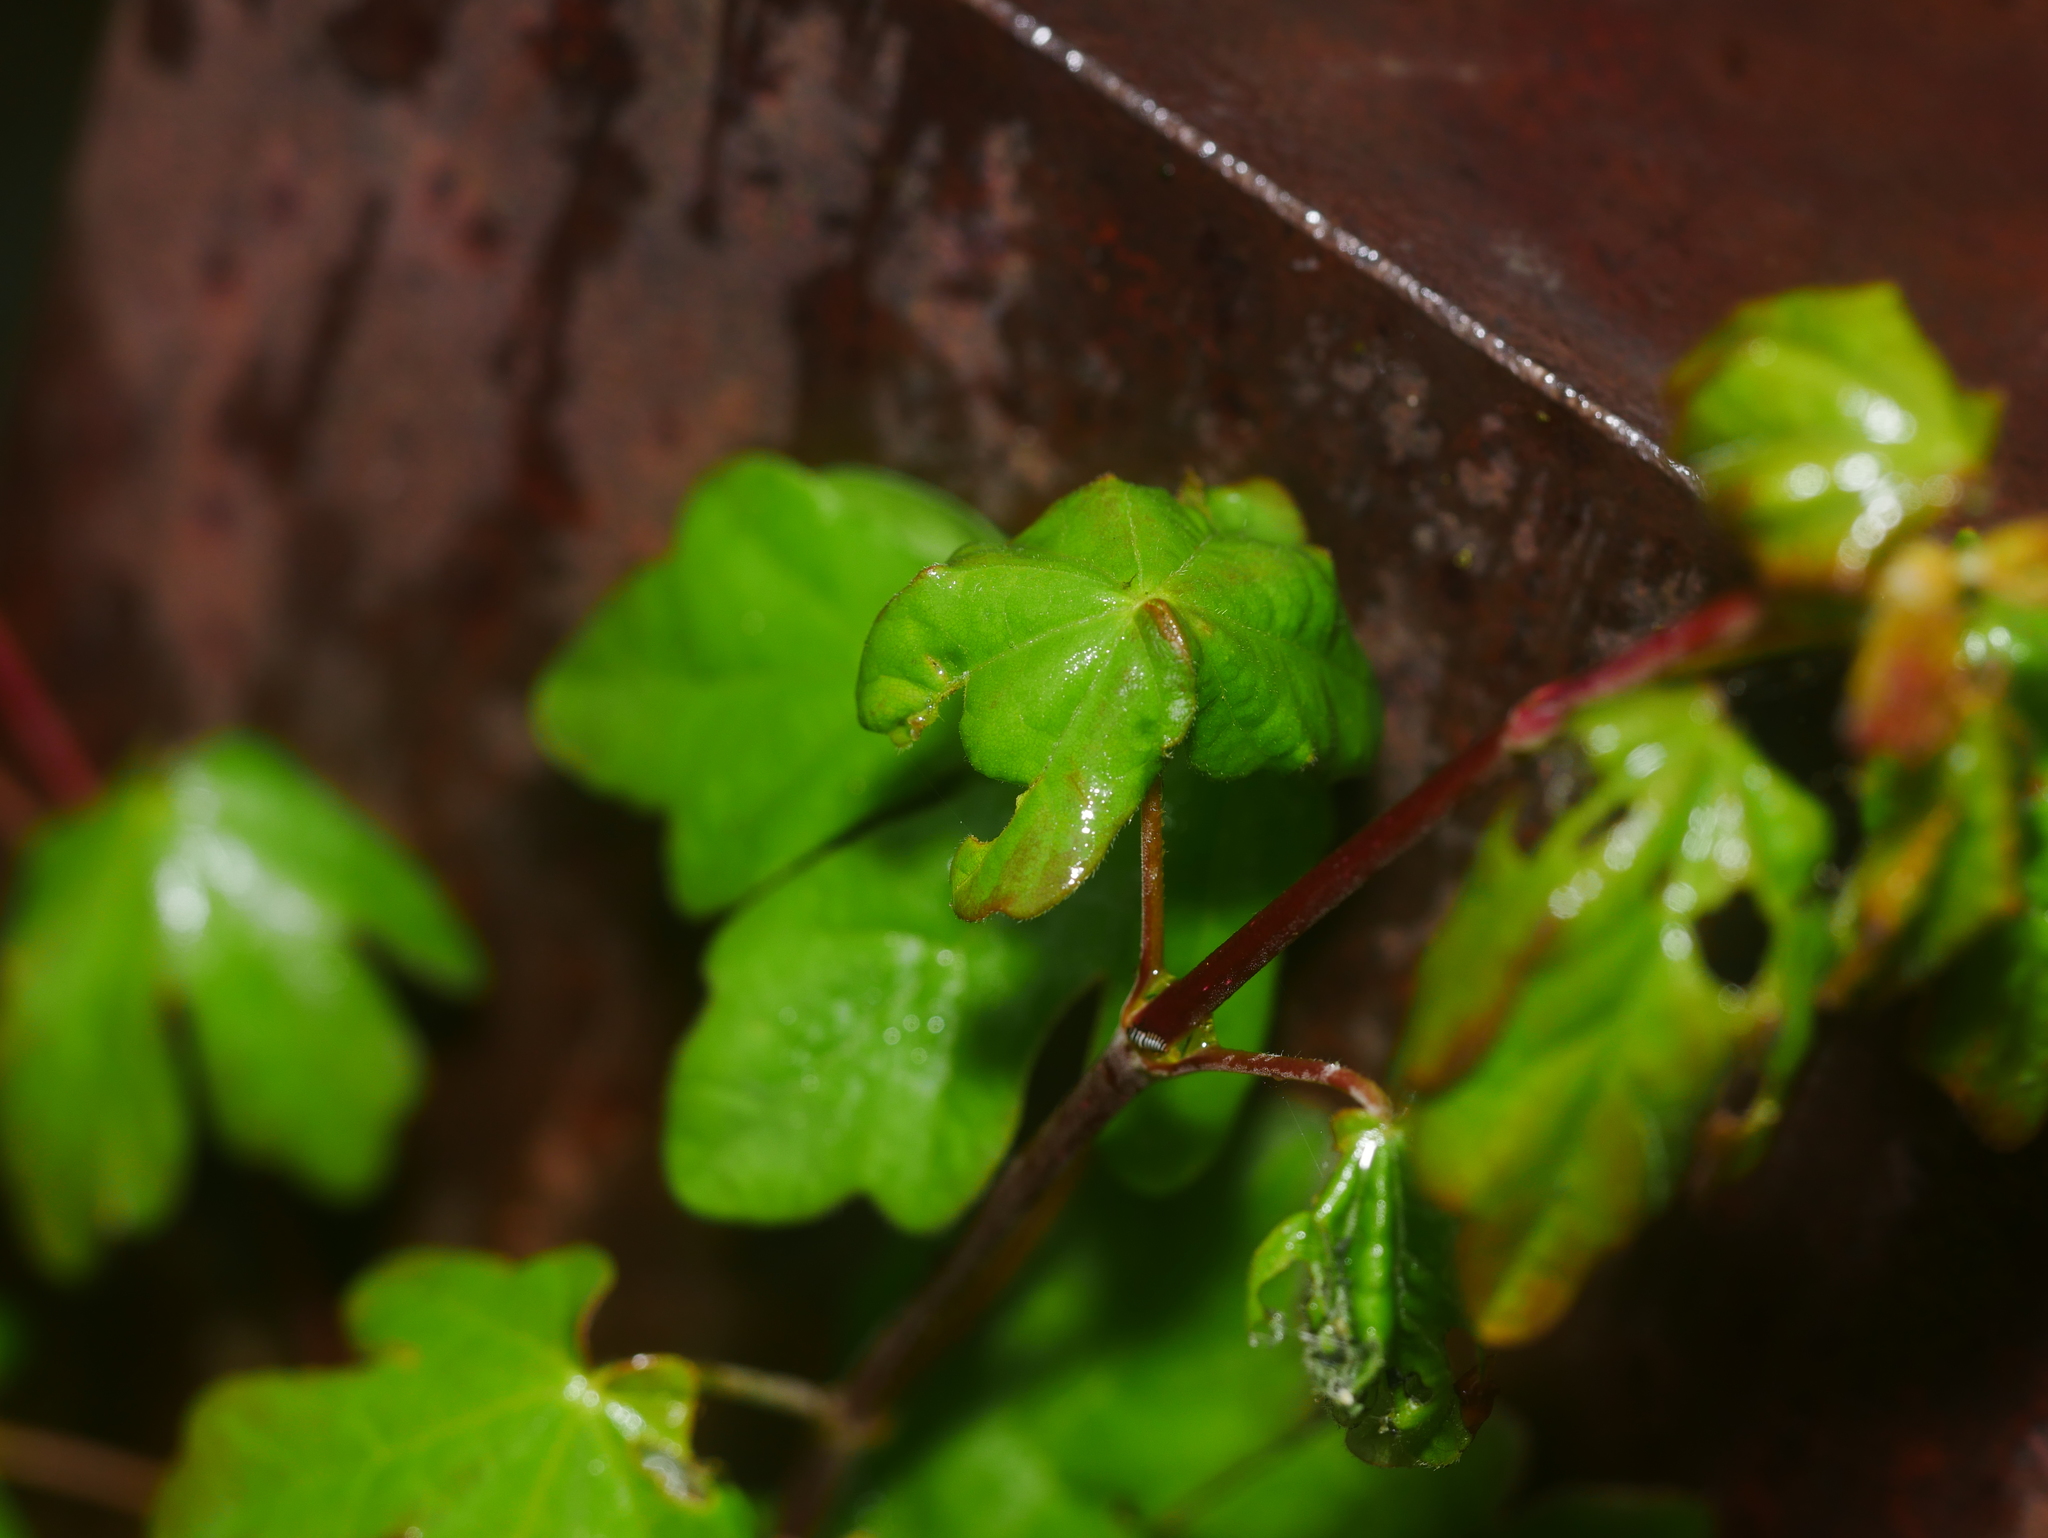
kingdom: Plantae
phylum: Tracheophyta
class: Magnoliopsida
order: Sapindales
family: Sapindaceae
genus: Acer
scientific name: Acer campestre
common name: Field maple
